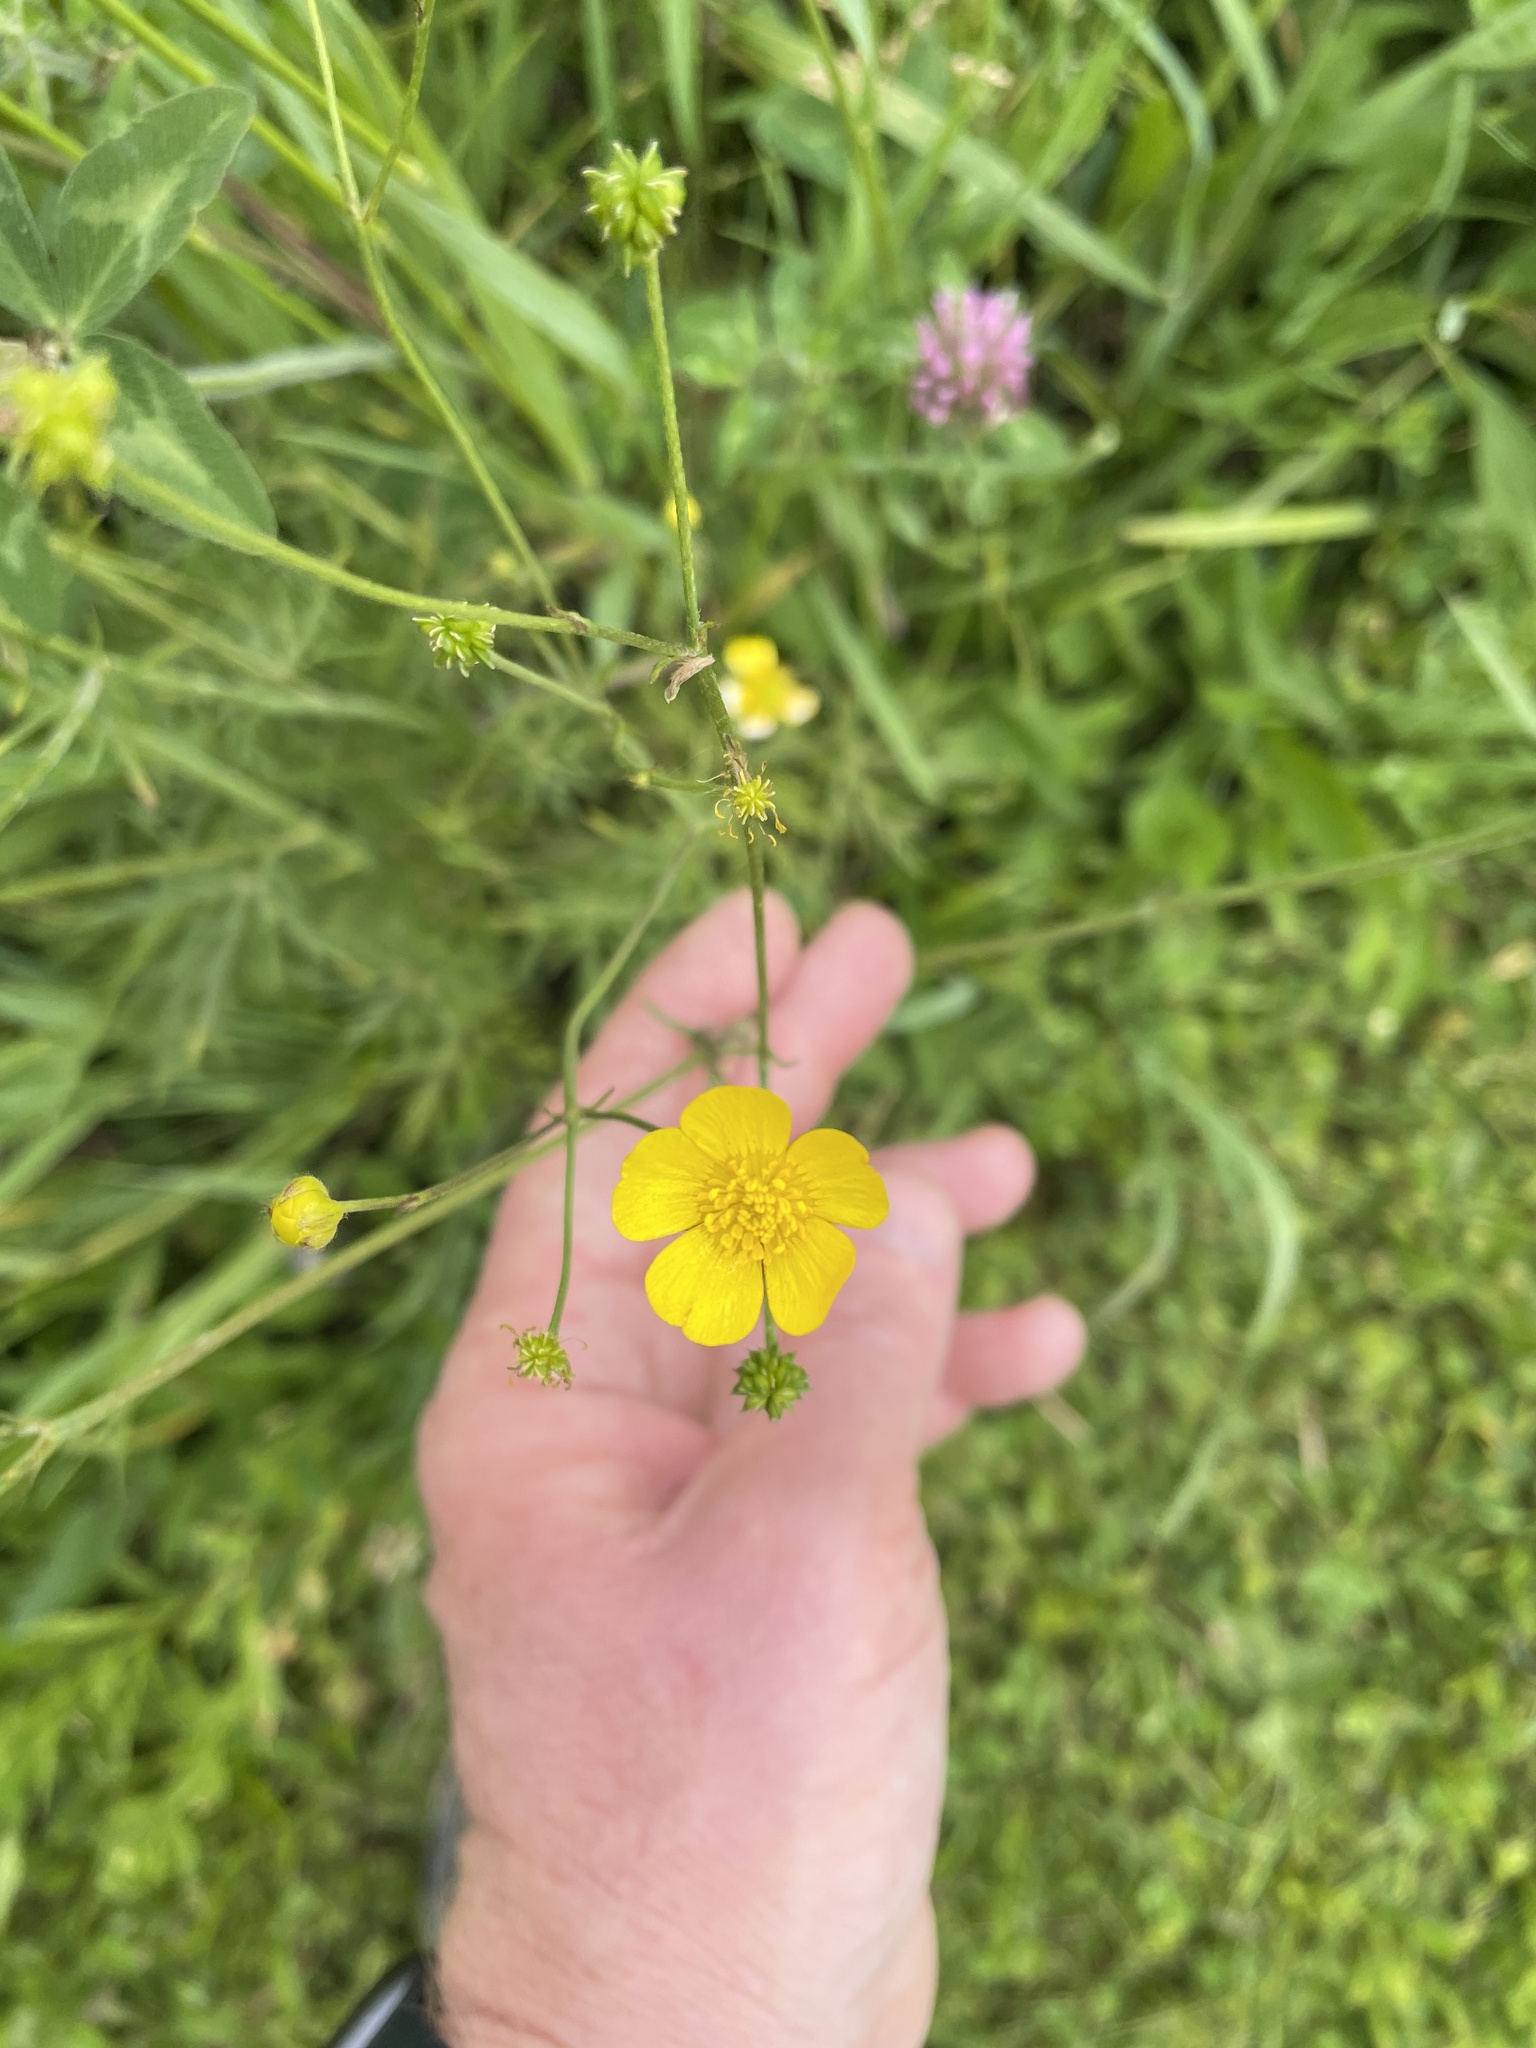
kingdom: Plantae
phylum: Tracheophyta
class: Magnoliopsida
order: Ranunculales
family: Ranunculaceae
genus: Ranunculus
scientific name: Ranunculus acris
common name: Meadow buttercup
